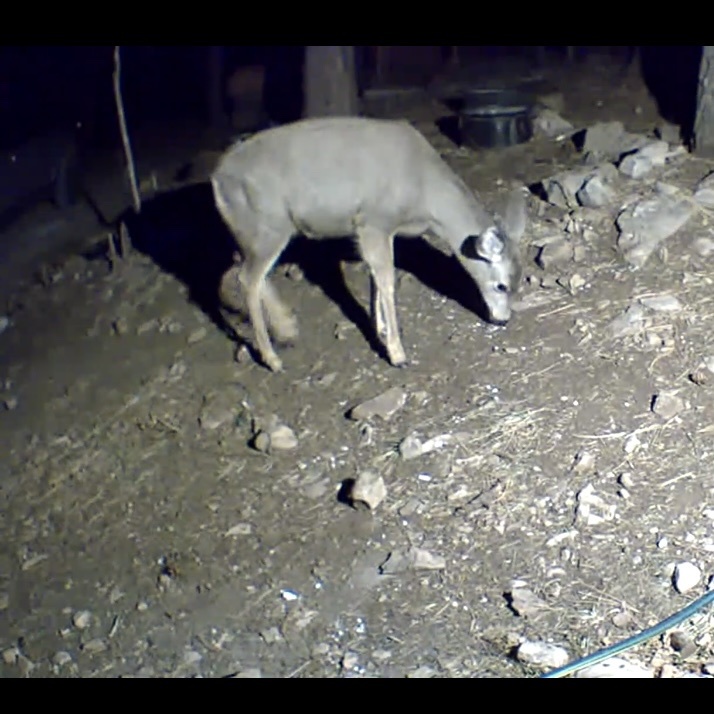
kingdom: Animalia
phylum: Chordata
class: Mammalia
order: Artiodactyla
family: Cervidae
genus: Odocoileus
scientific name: Odocoileus hemionus
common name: Mule deer
